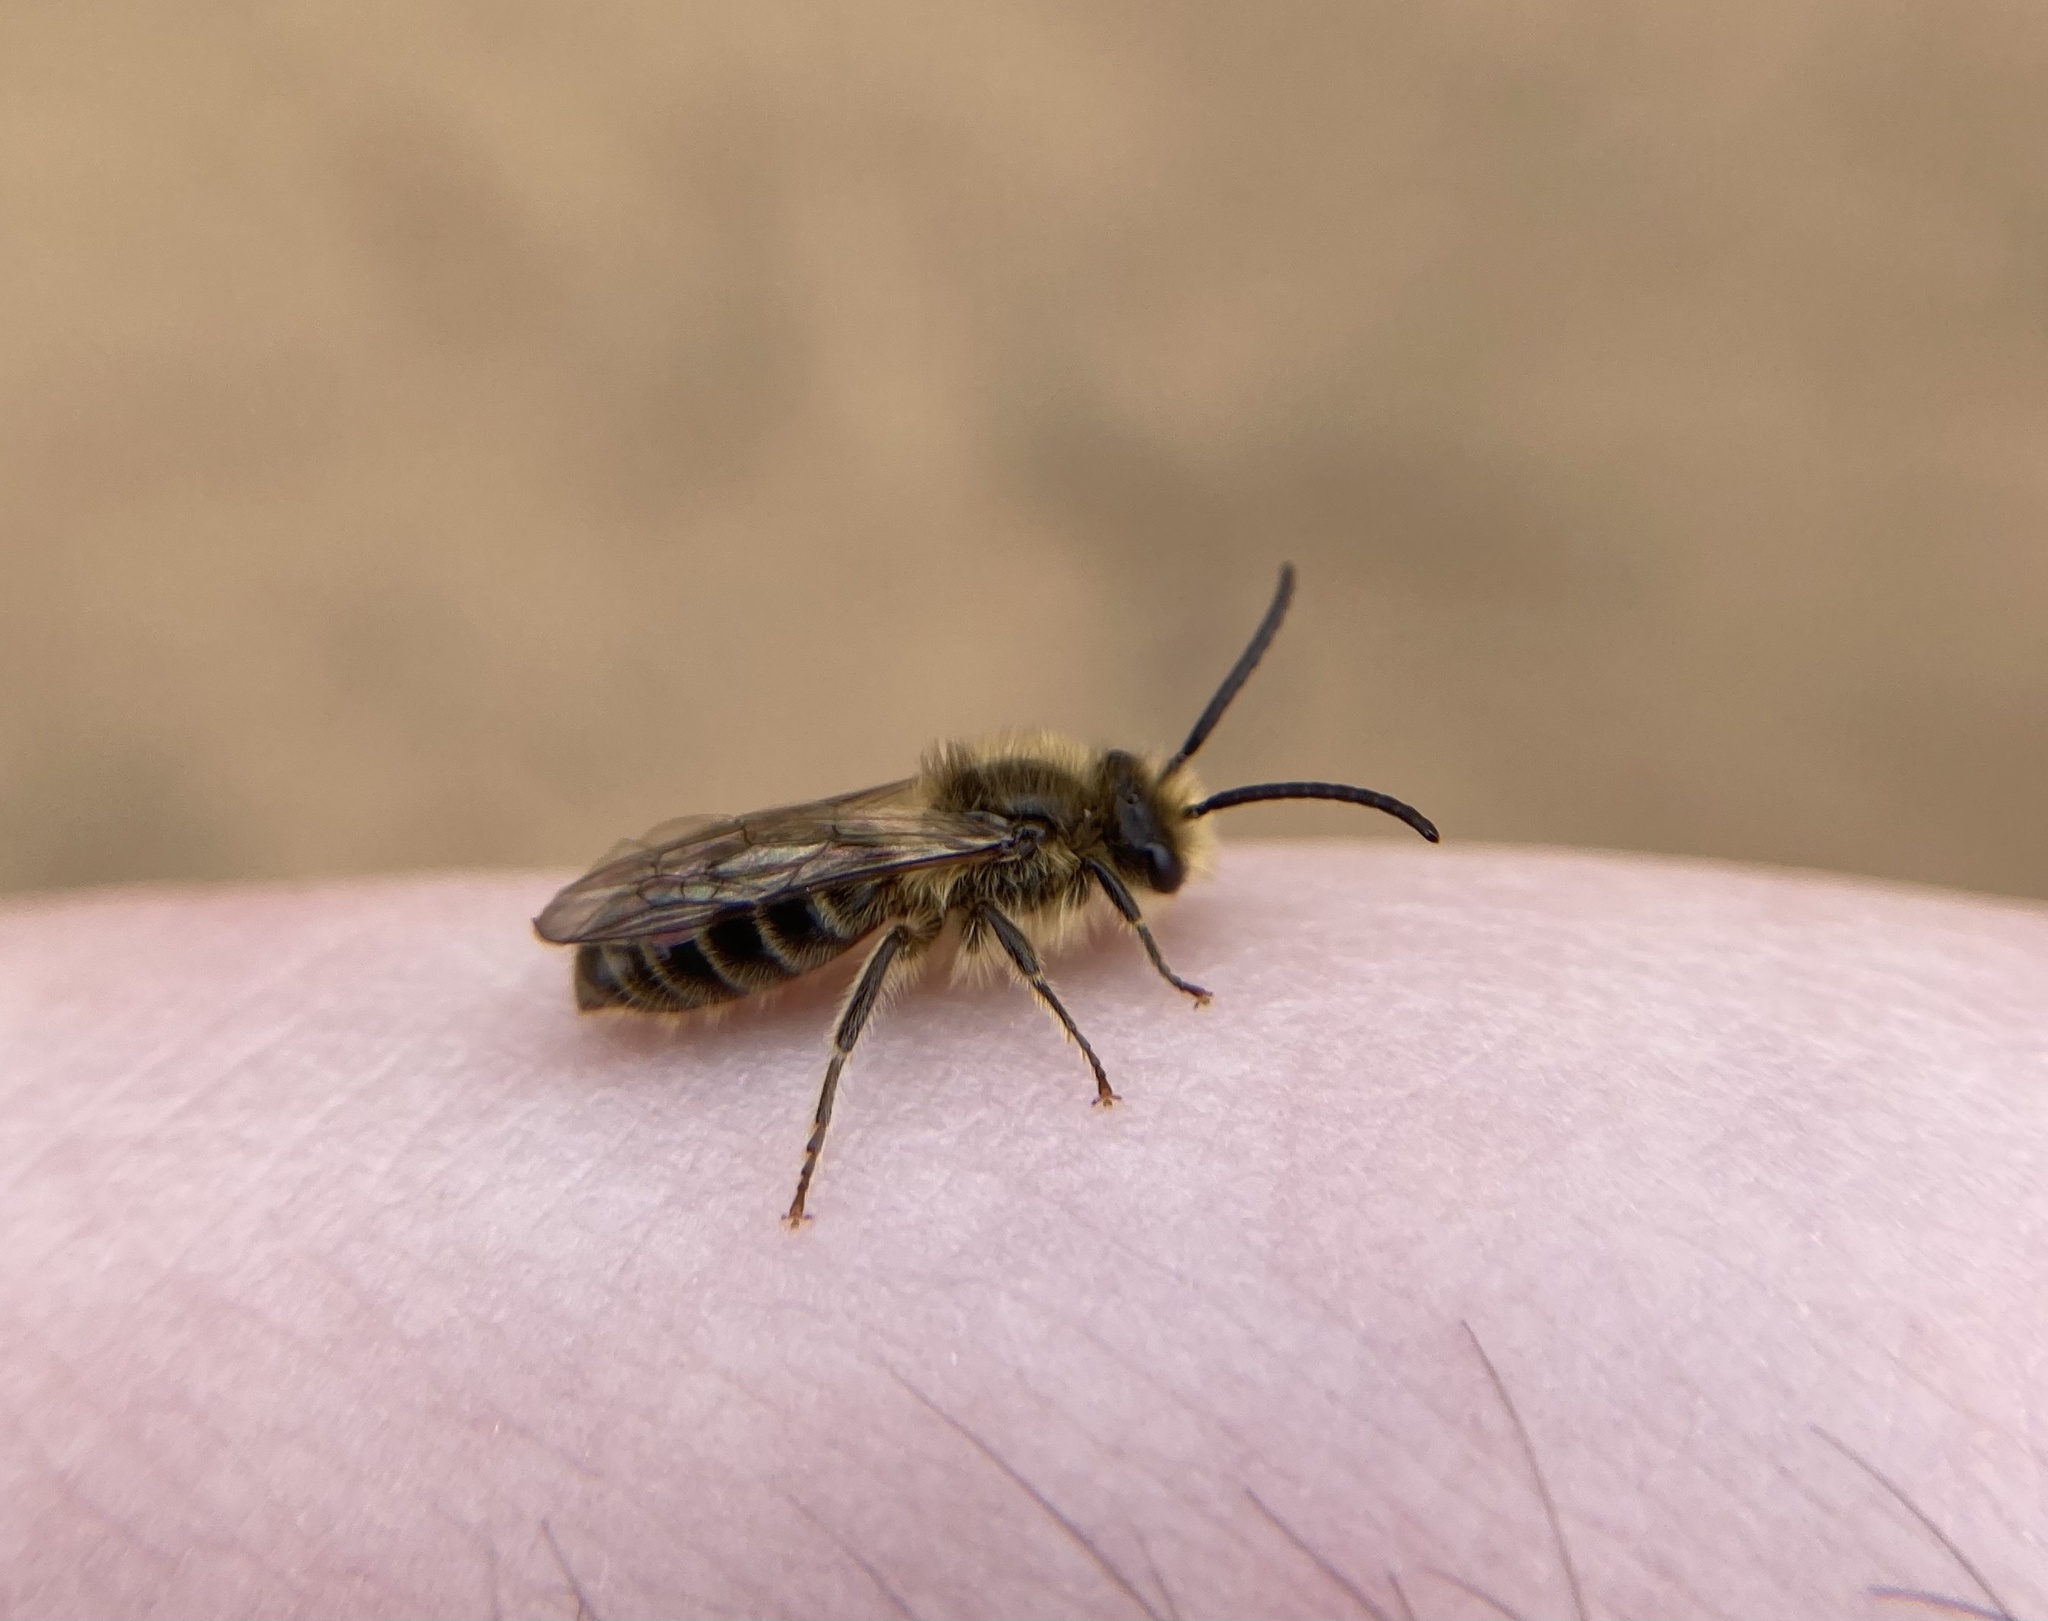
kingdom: Animalia
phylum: Arthropoda
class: Insecta
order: Hymenoptera
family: Colletidae
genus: Colletes
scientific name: Colletes inaequalis
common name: Unequal cellophane bee
